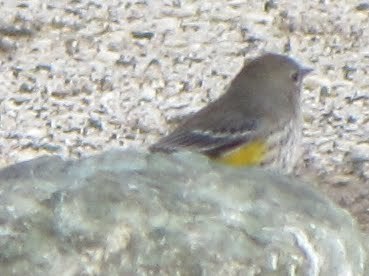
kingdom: Animalia
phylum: Chordata
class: Aves
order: Passeriformes
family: Parulidae
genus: Setophaga
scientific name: Setophaga coronata
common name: Myrtle warbler
